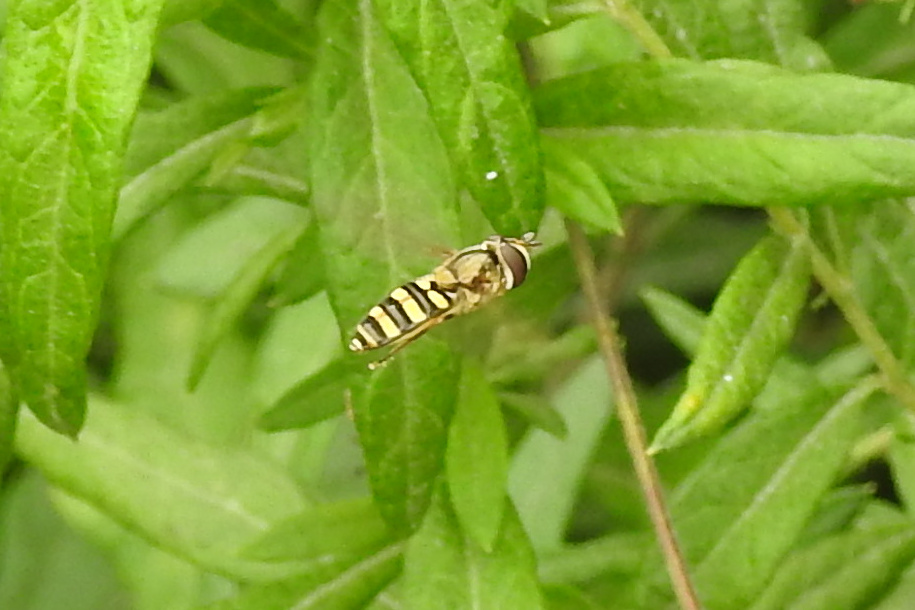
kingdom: Animalia
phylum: Arthropoda
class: Insecta
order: Diptera
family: Syrphidae
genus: Eupeodes
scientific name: Eupeodes
